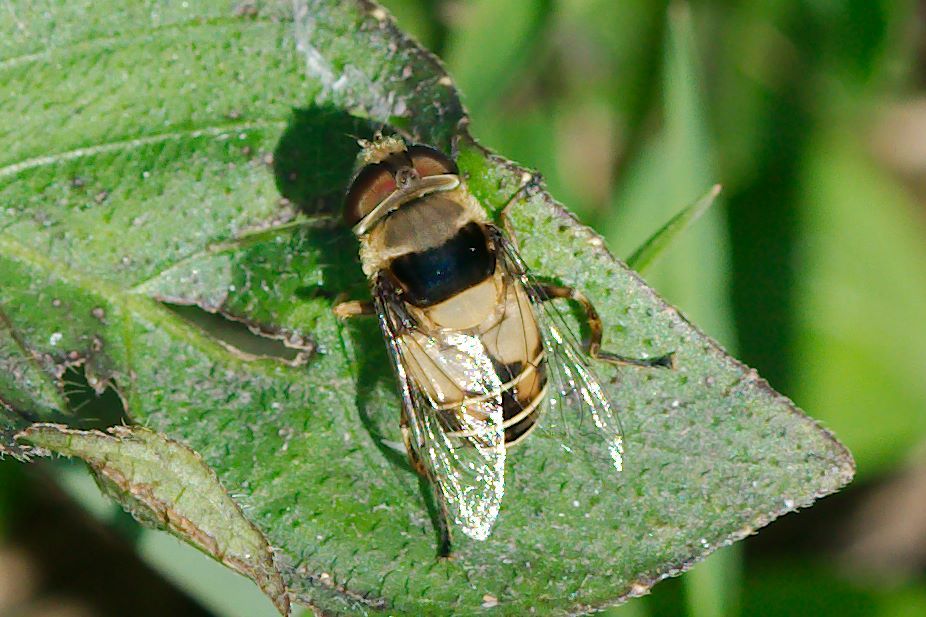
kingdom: Animalia
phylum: Arthropoda
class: Insecta
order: Diptera
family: Syrphidae
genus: Palpada
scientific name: Palpada pusilla
